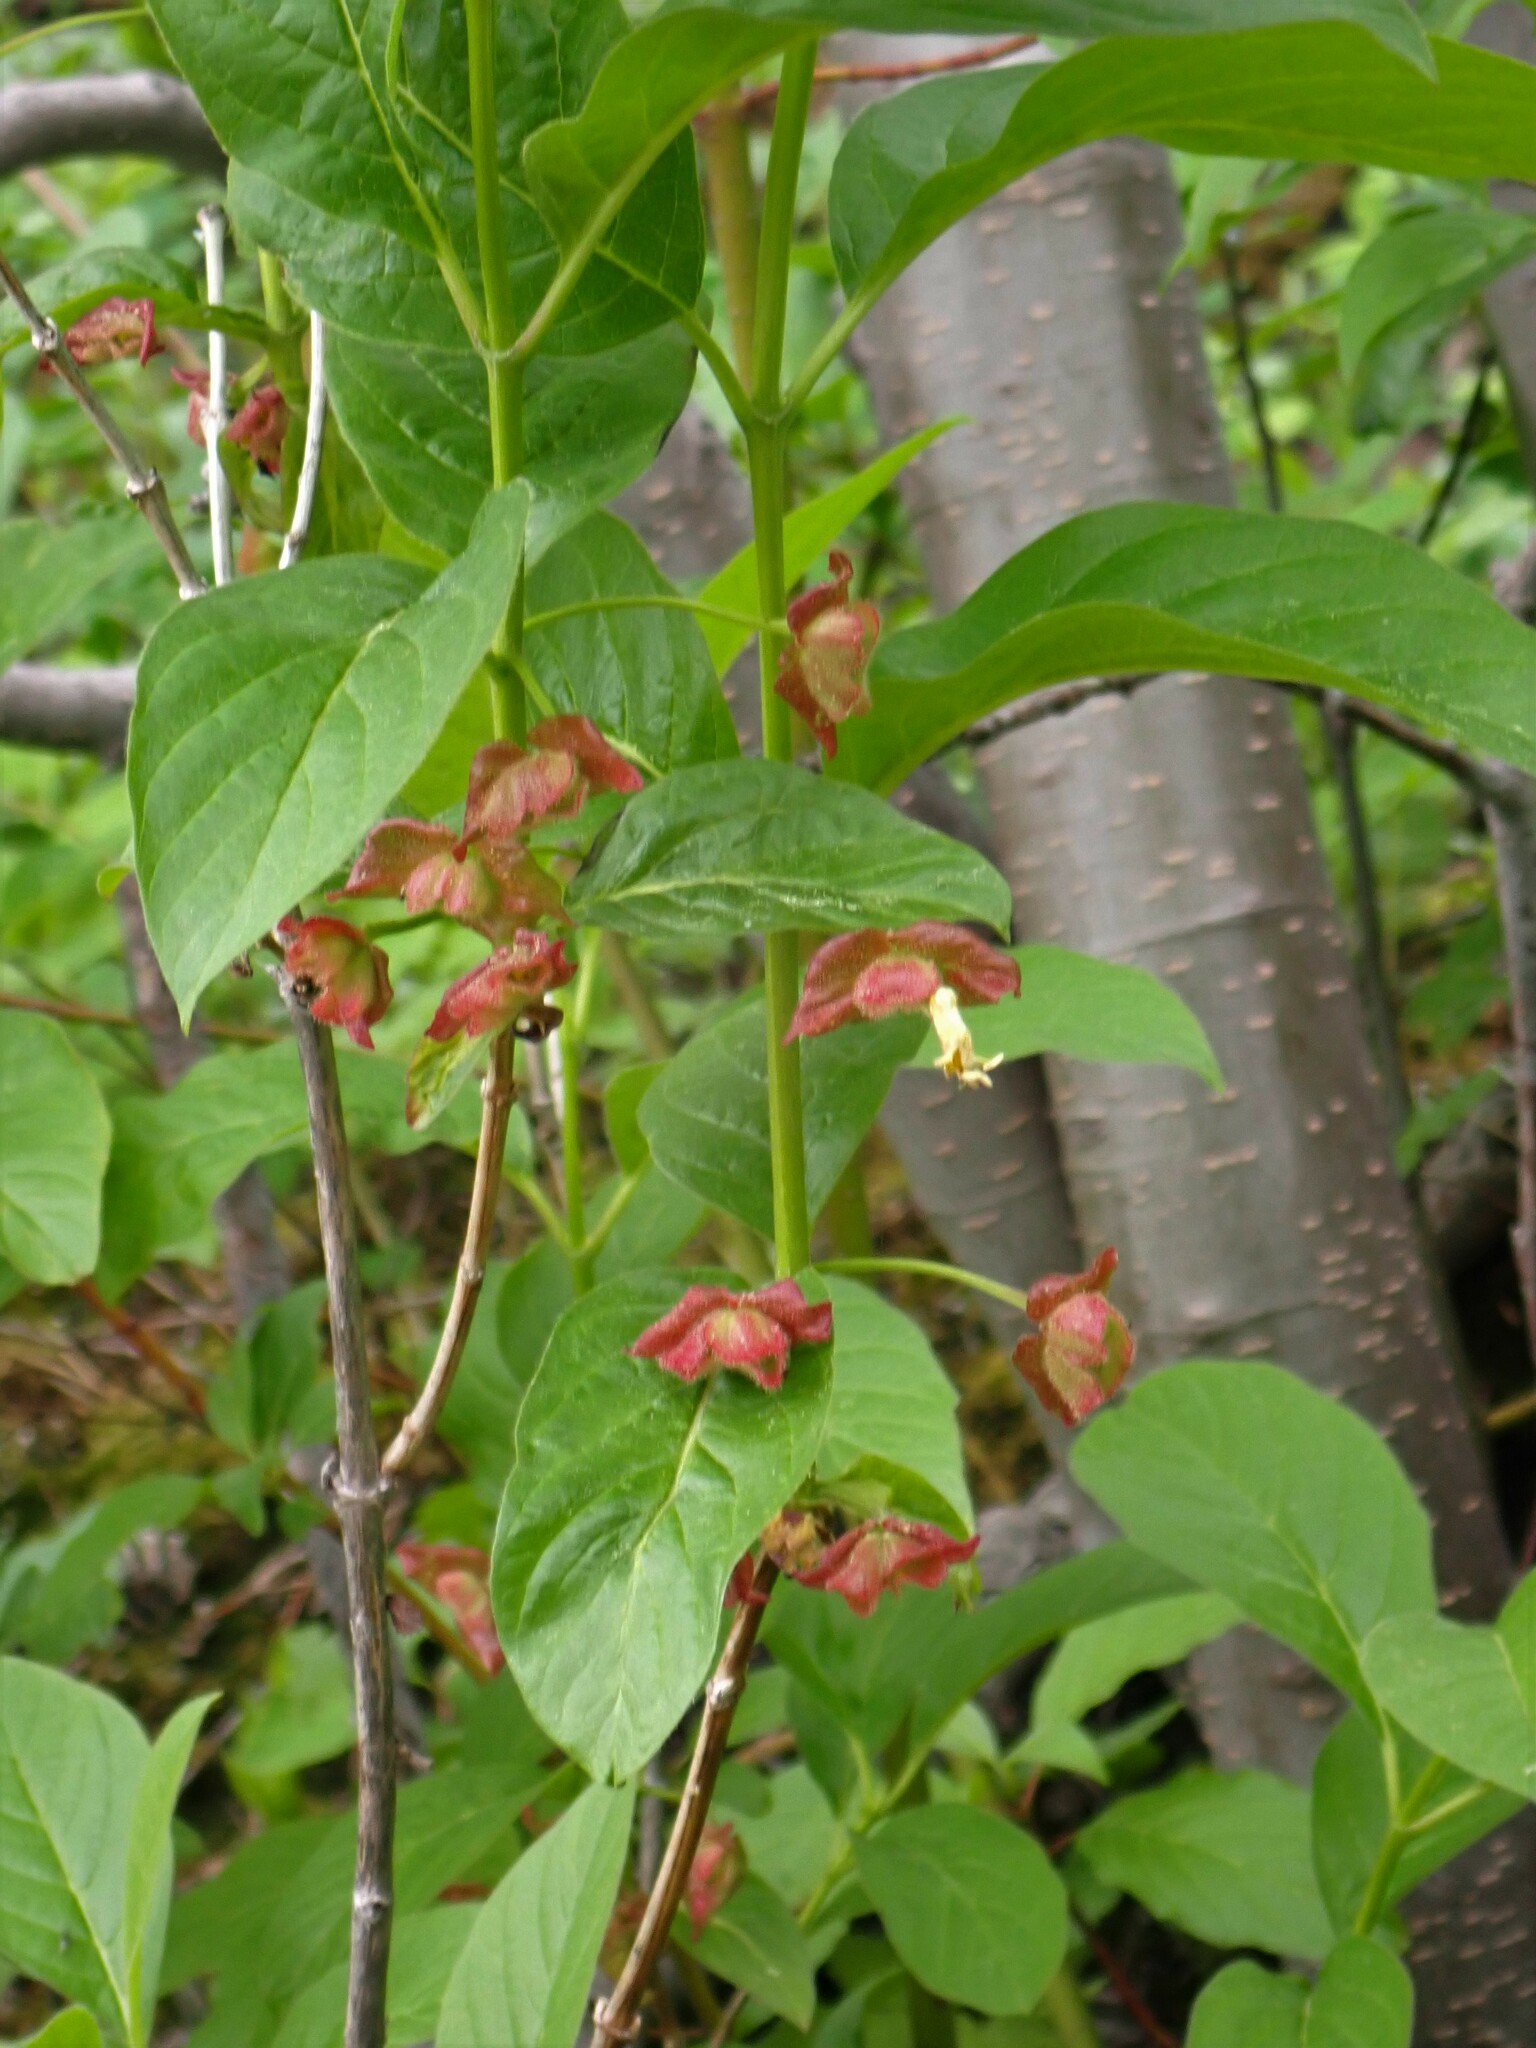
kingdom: Plantae
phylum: Tracheophyta
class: Magnoliopsida
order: Dipsacales
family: Caprifoliaceae
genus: Lonicera
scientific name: Lonicera involucrata
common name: Californian honeysuckle
